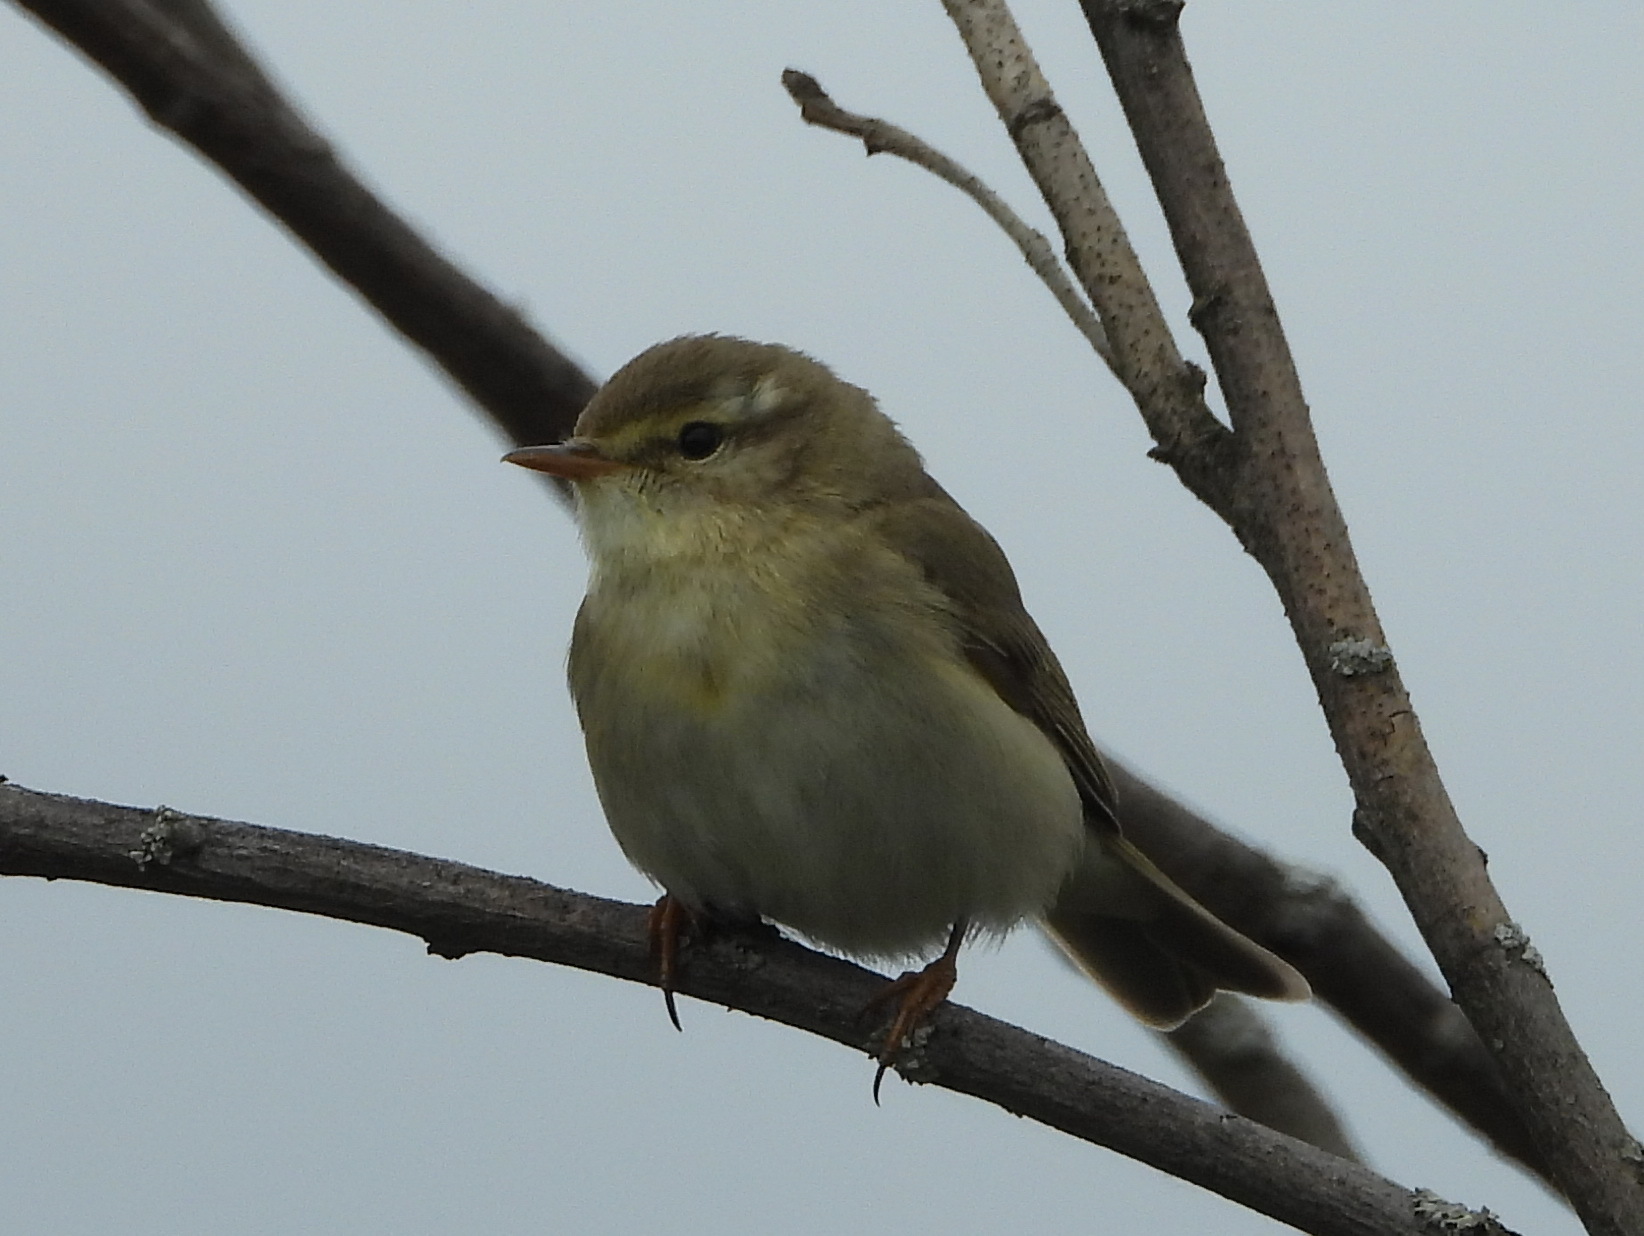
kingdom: Animalia
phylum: Chordata
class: Aves
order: Passeriformes
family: Phylloscopidae
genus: Phylloscopus
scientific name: Phylloscopus trochiloides
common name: Greenish warbler
